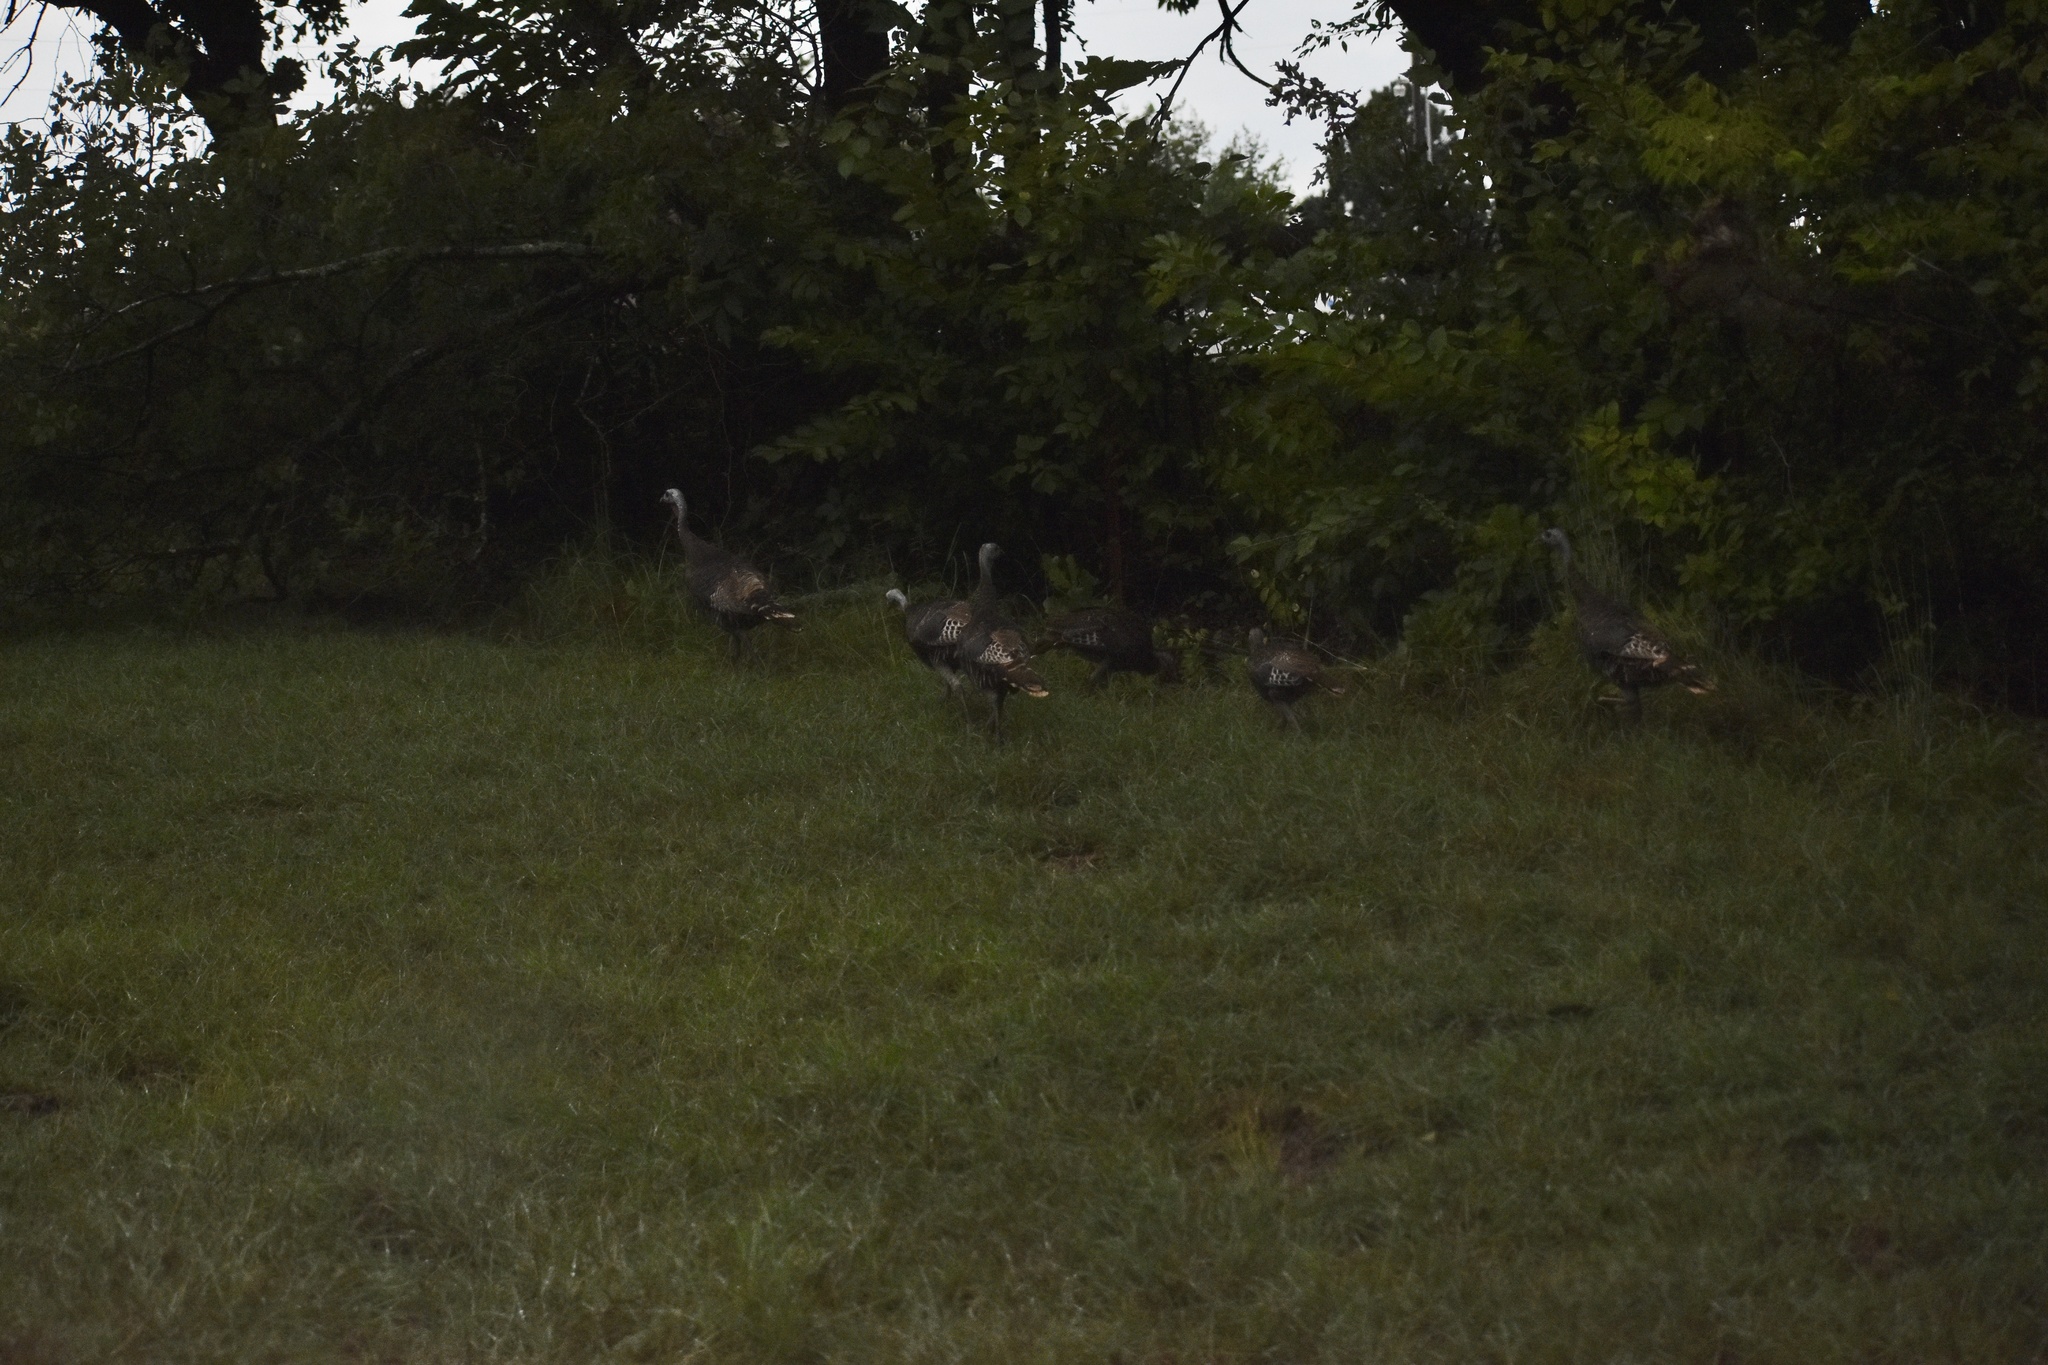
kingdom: Animalia
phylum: Chordata
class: Aves
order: Galliformes
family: Phasianidae
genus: Meleagris
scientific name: Meleagris gallopavo
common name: Wild turkey
